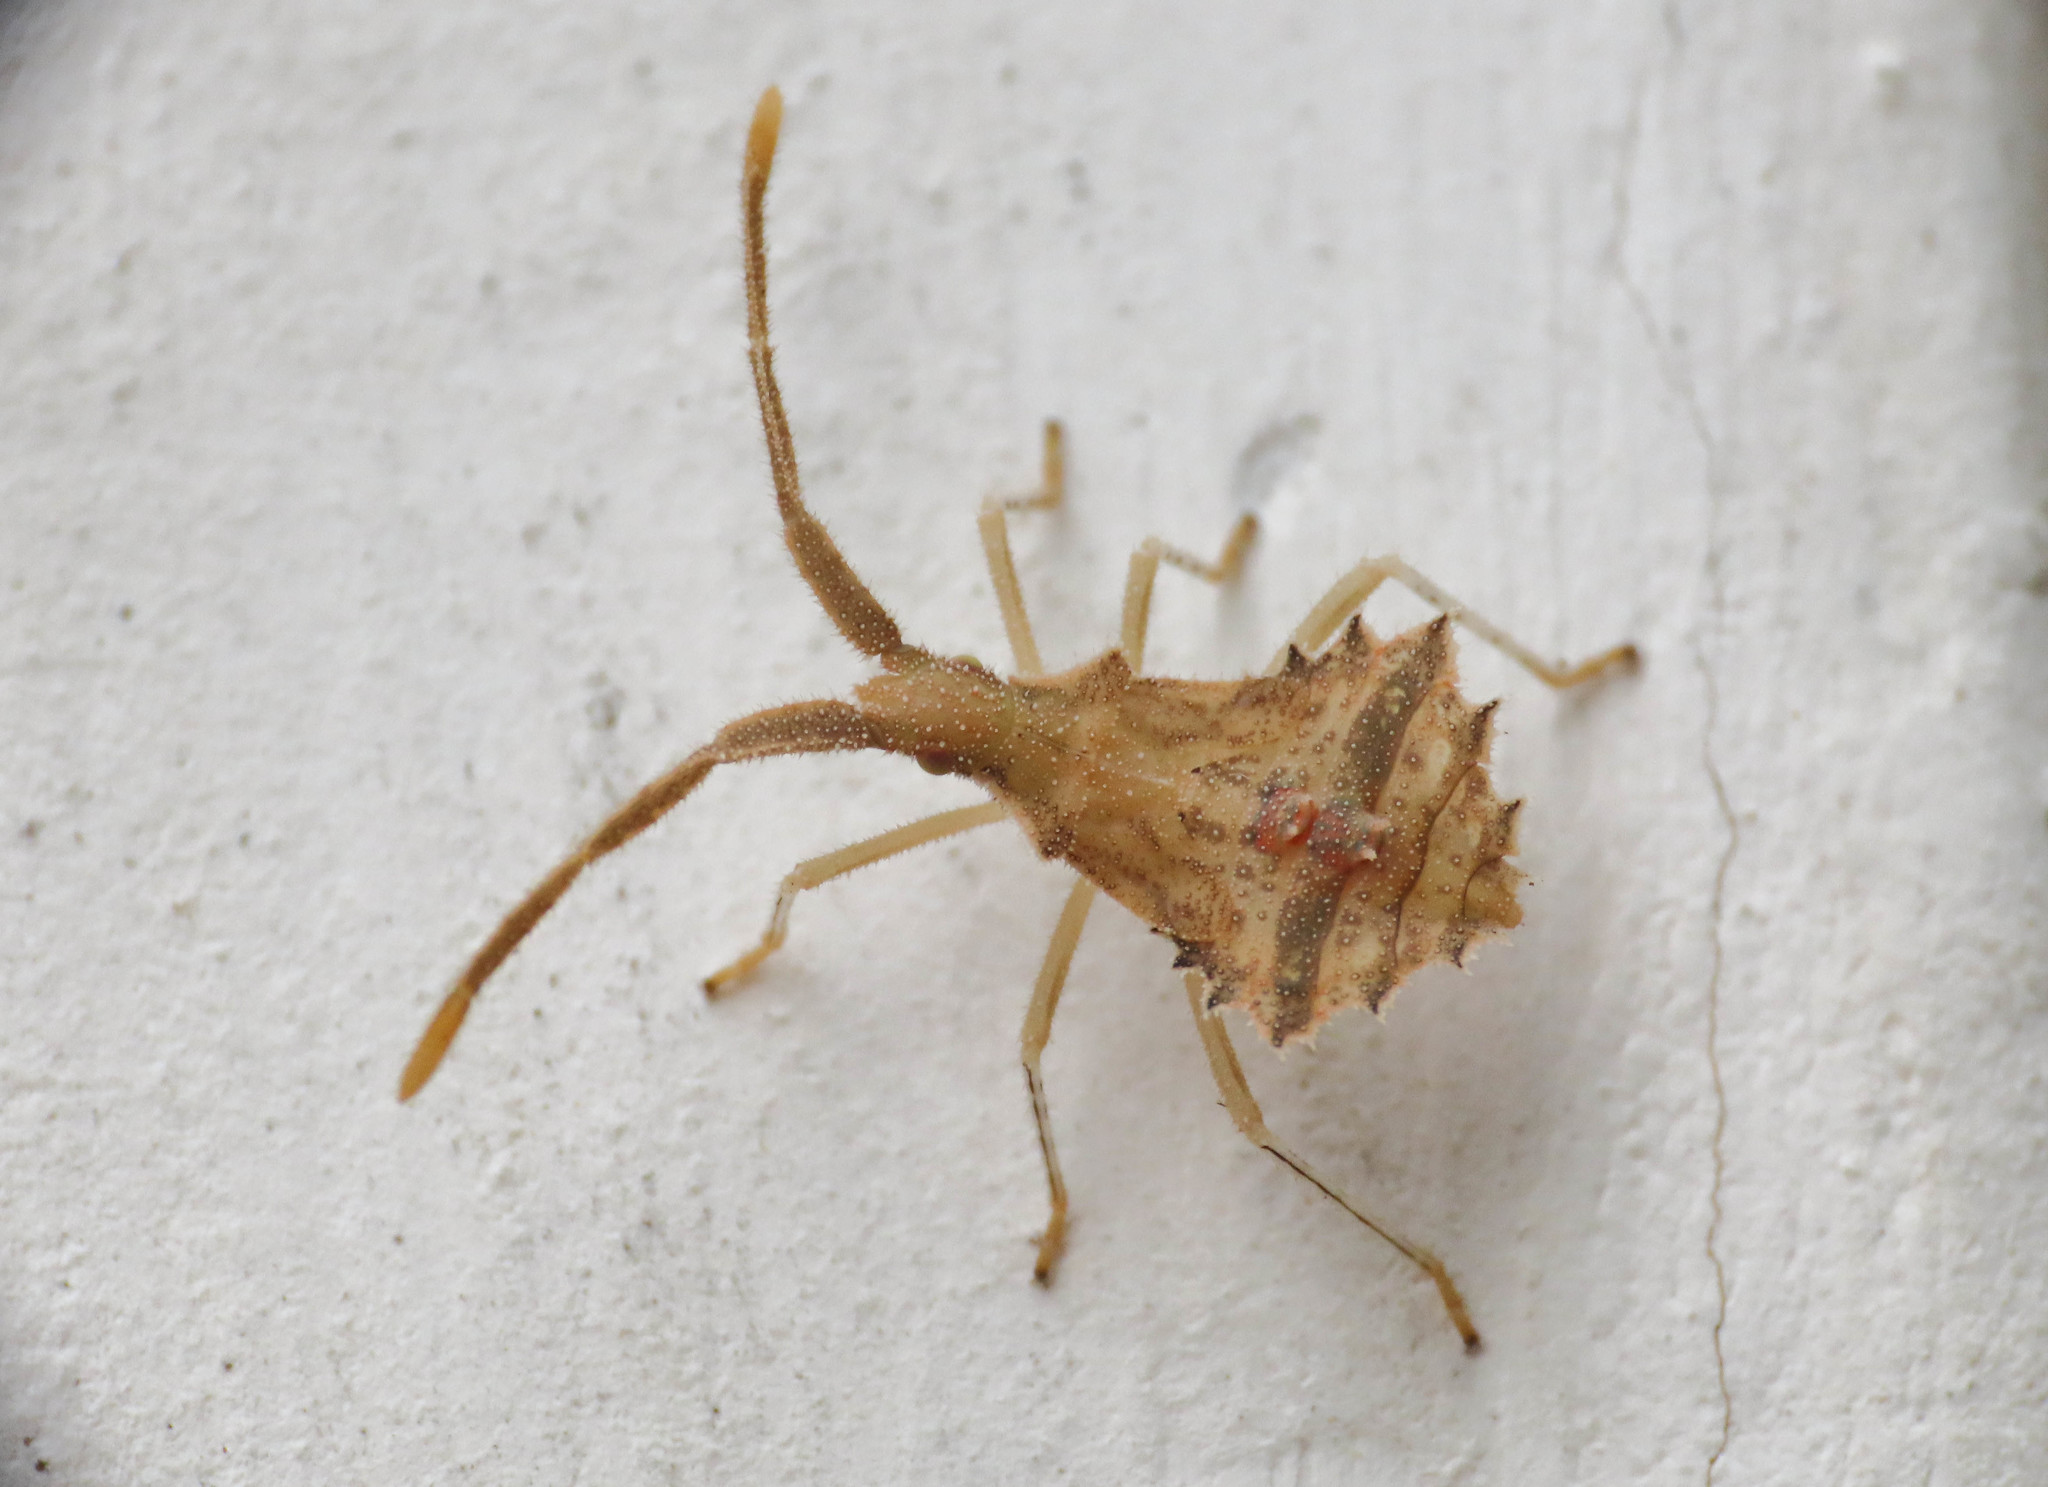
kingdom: Animalia
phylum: Arthropoda
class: Insecta
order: Hemiptera
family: Coreidae
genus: Syromastus
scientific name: Syromastus rhombeus
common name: Rhombic leatherbug
